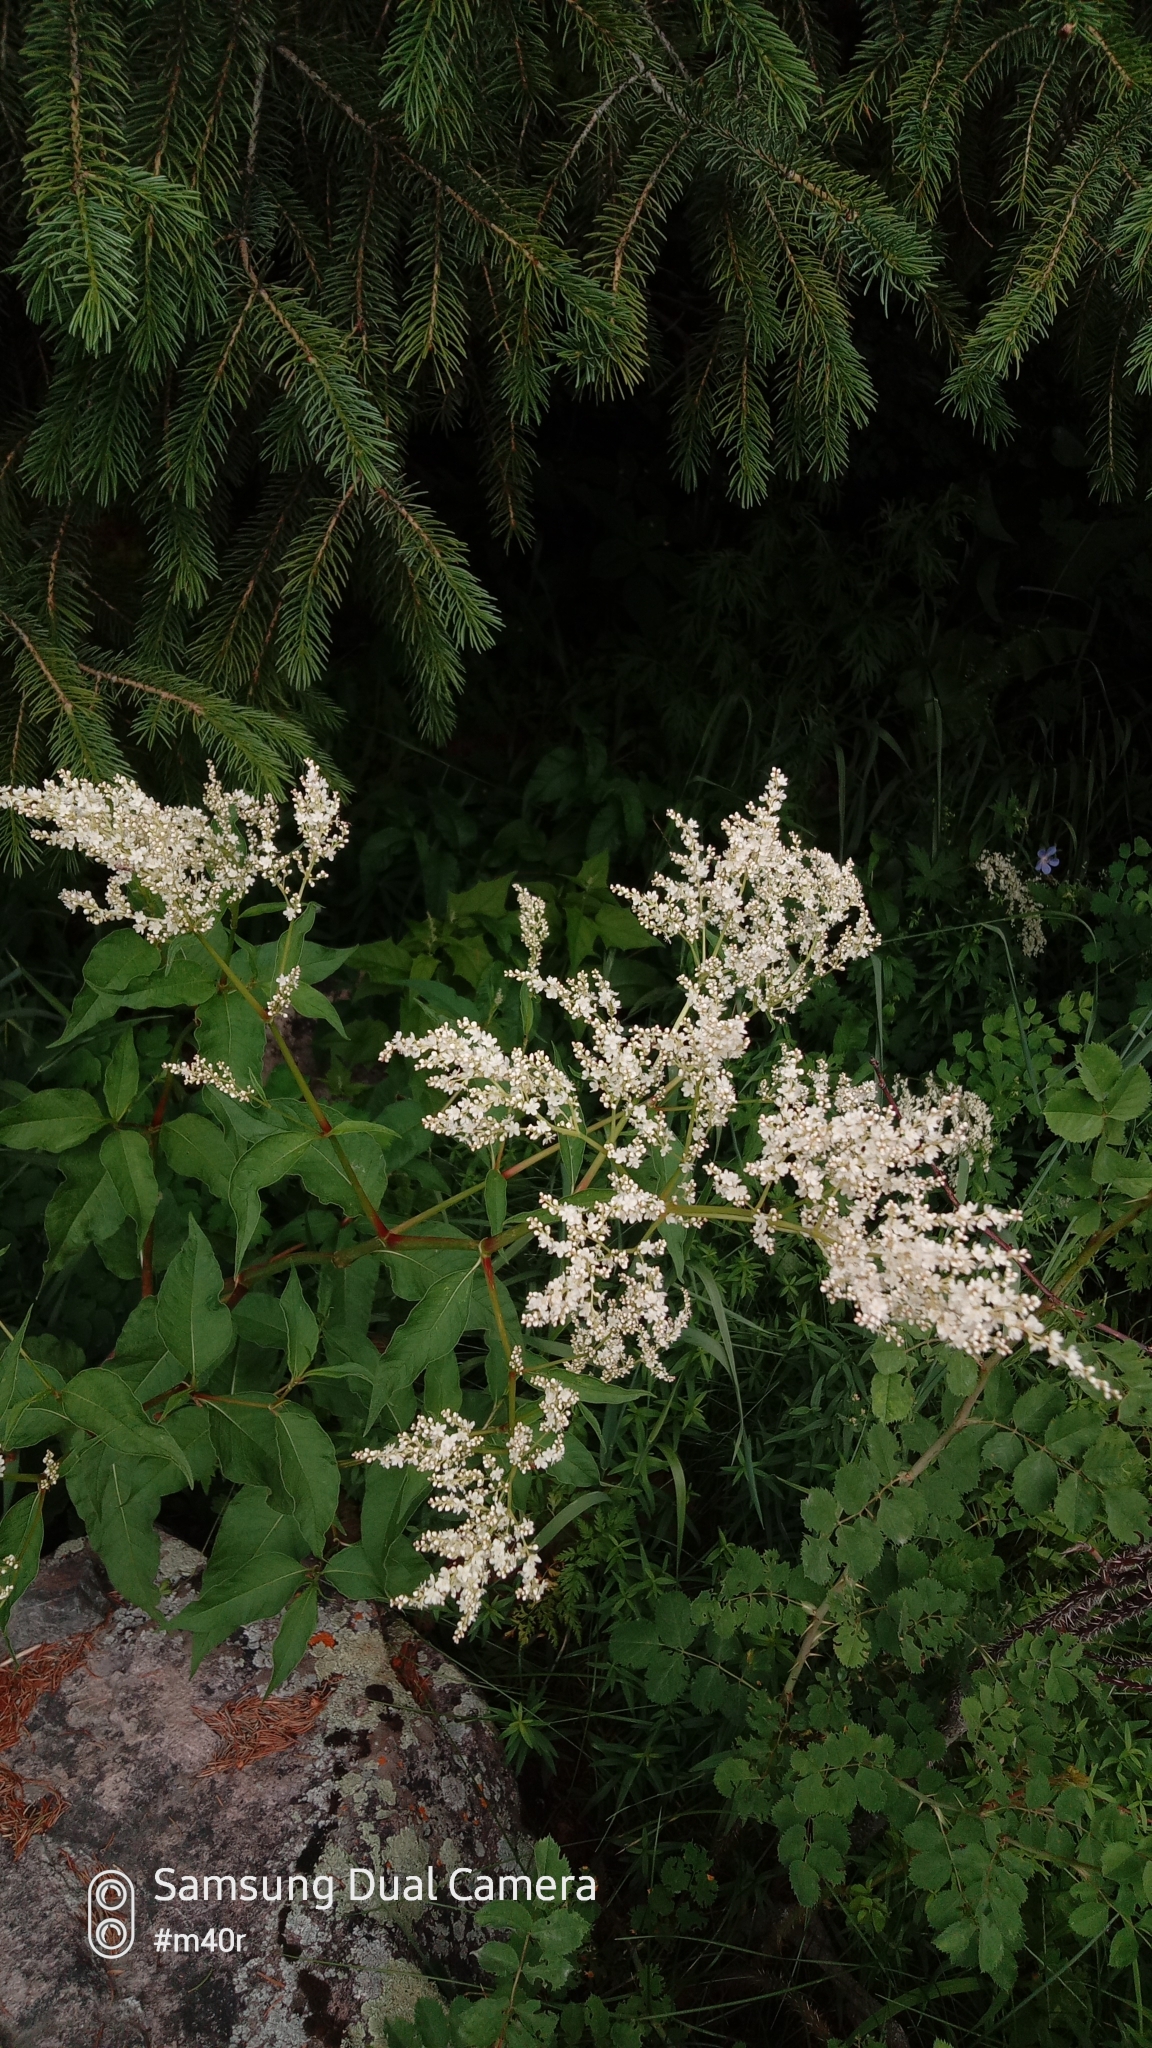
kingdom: Plantae
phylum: Tracheophyta
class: Magnoliopsida
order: Caryophyllales
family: Polygonaceae
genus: Koenigia
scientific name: Koenigia alpina
